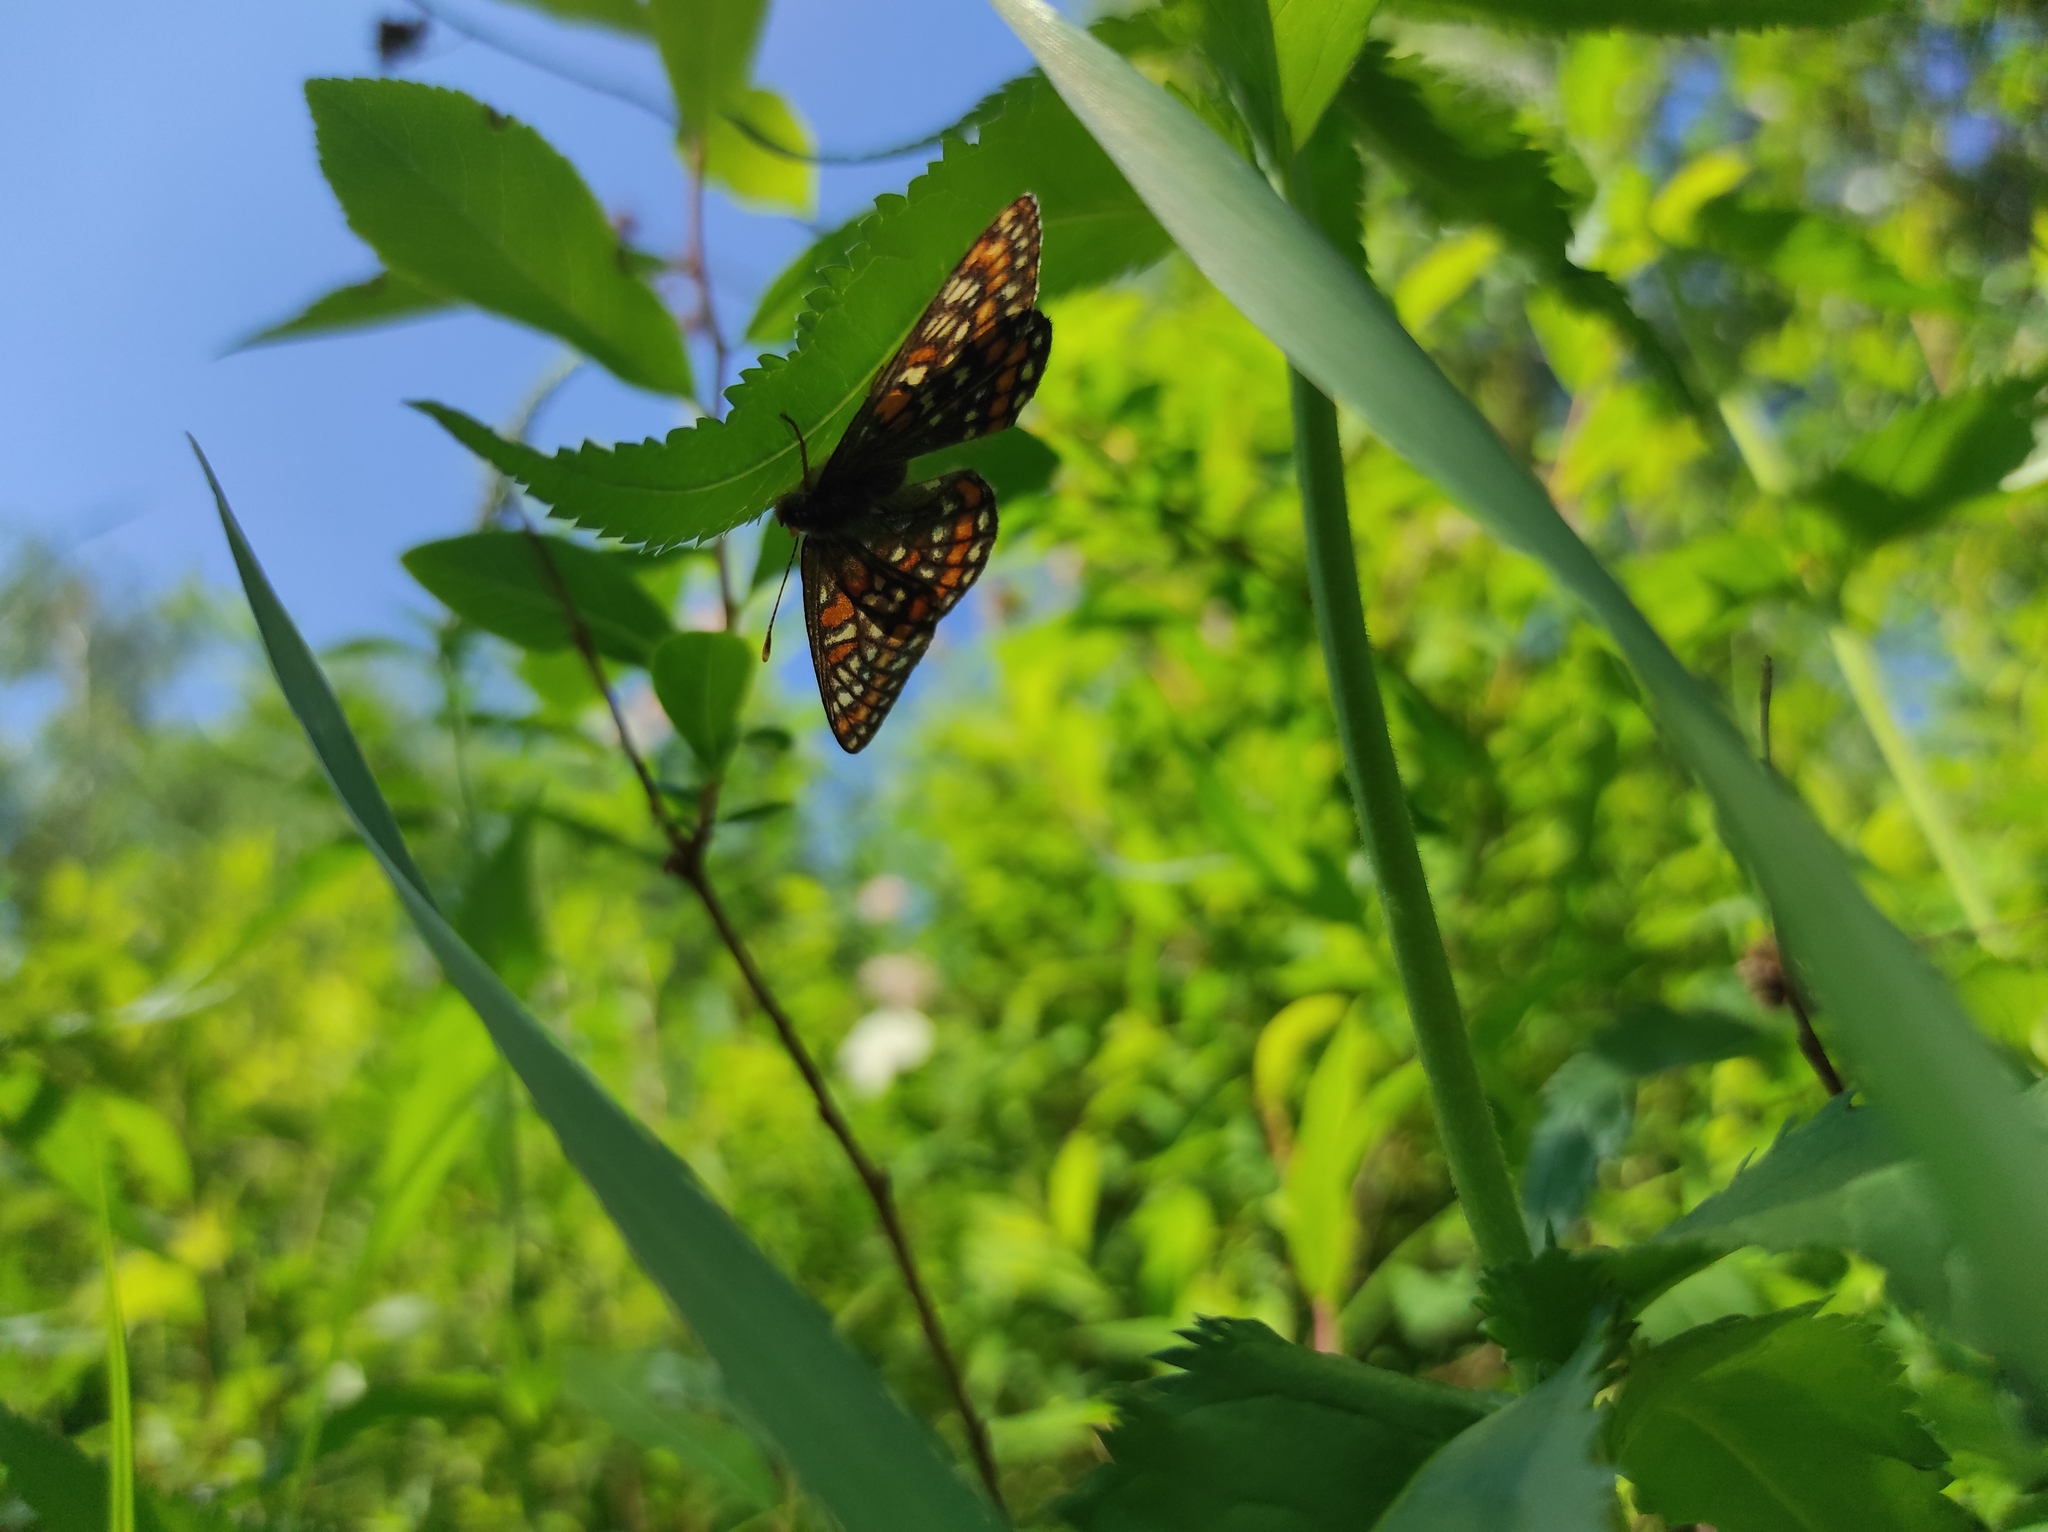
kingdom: Animalia
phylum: Arthropoda
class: Insecta
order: Lepidoptera
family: Nymphalidae
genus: Euphydryas
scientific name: Euphydryas maturna
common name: Scarce fritillary
